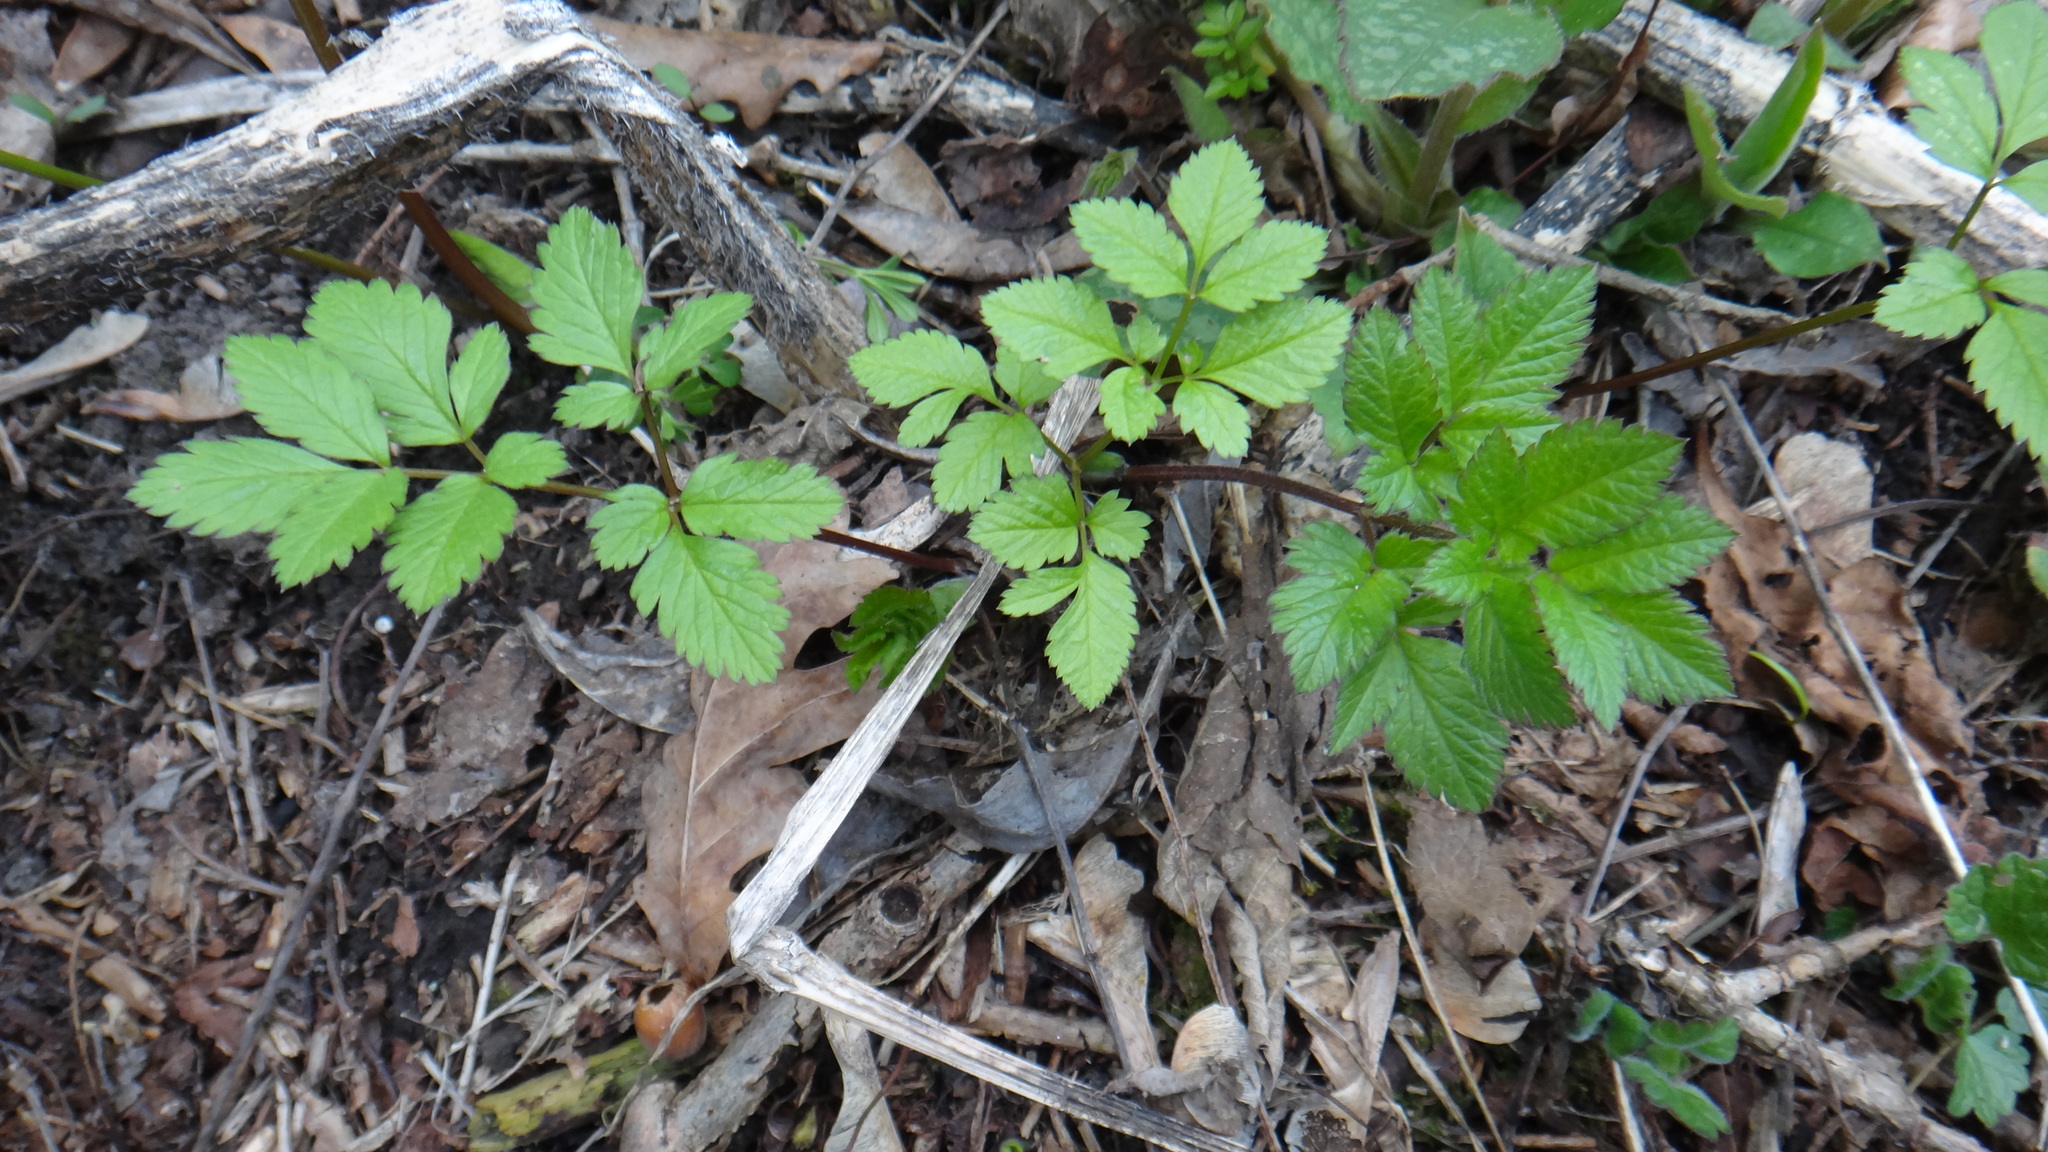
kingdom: Plantae
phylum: Tracheophyta
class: Magnoliopsida
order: Apiales
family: Apiaceae
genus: Chaerophyllum
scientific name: Chaerophyllum aromaticum
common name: Broadleaf chervil
